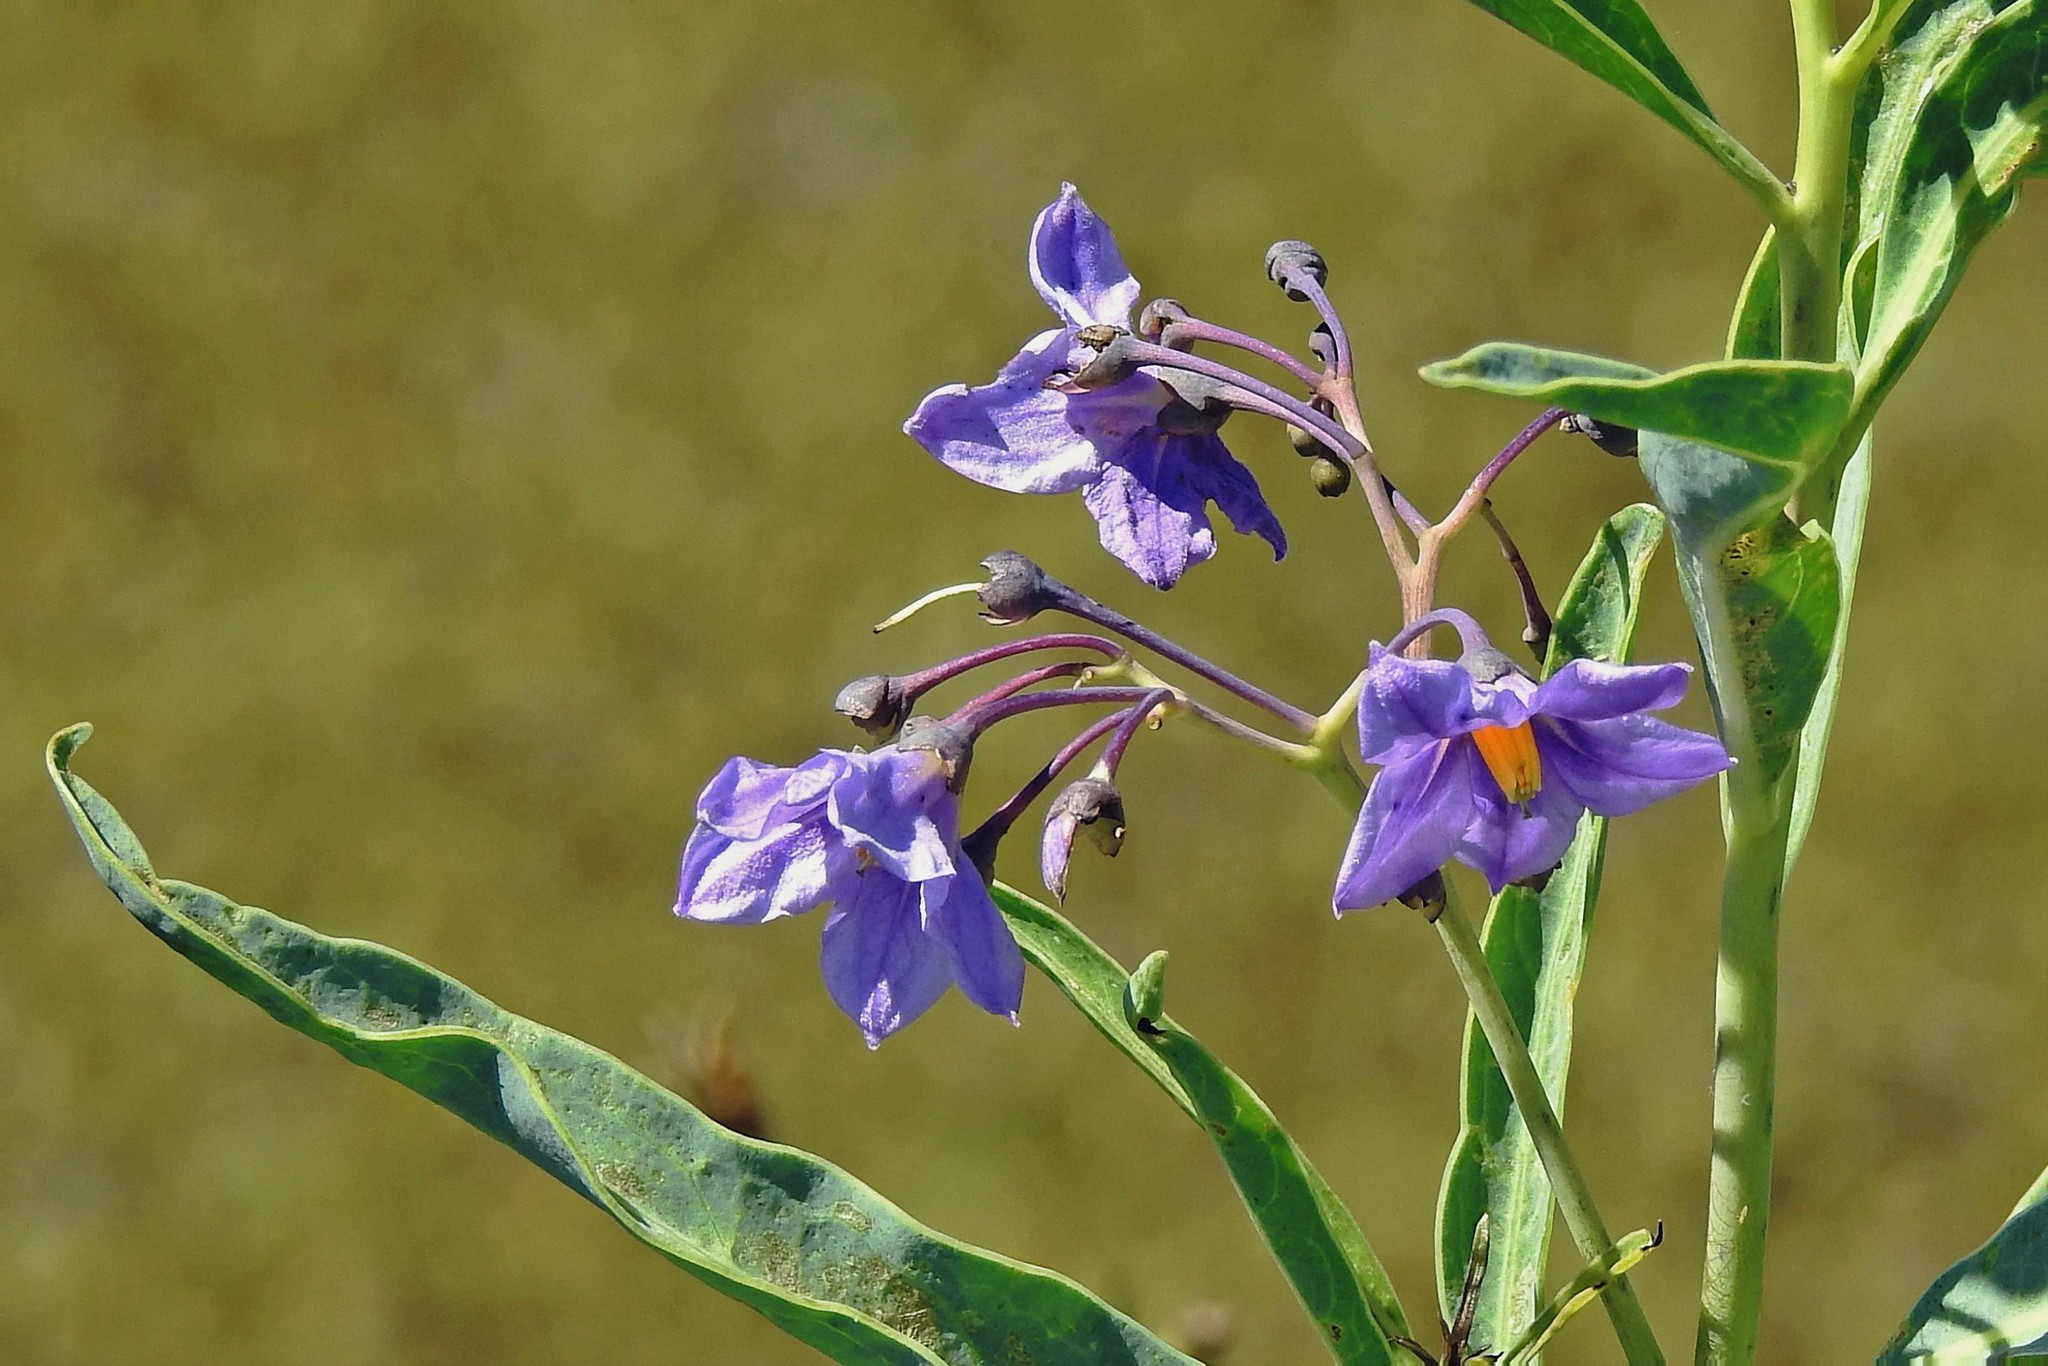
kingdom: Plantae
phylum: Tracheophyta
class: Magnoliopsida
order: Solanales
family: Solanaceae
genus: Solanum
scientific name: Solanum glaucophyllum
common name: Waxyleaf nightshade
